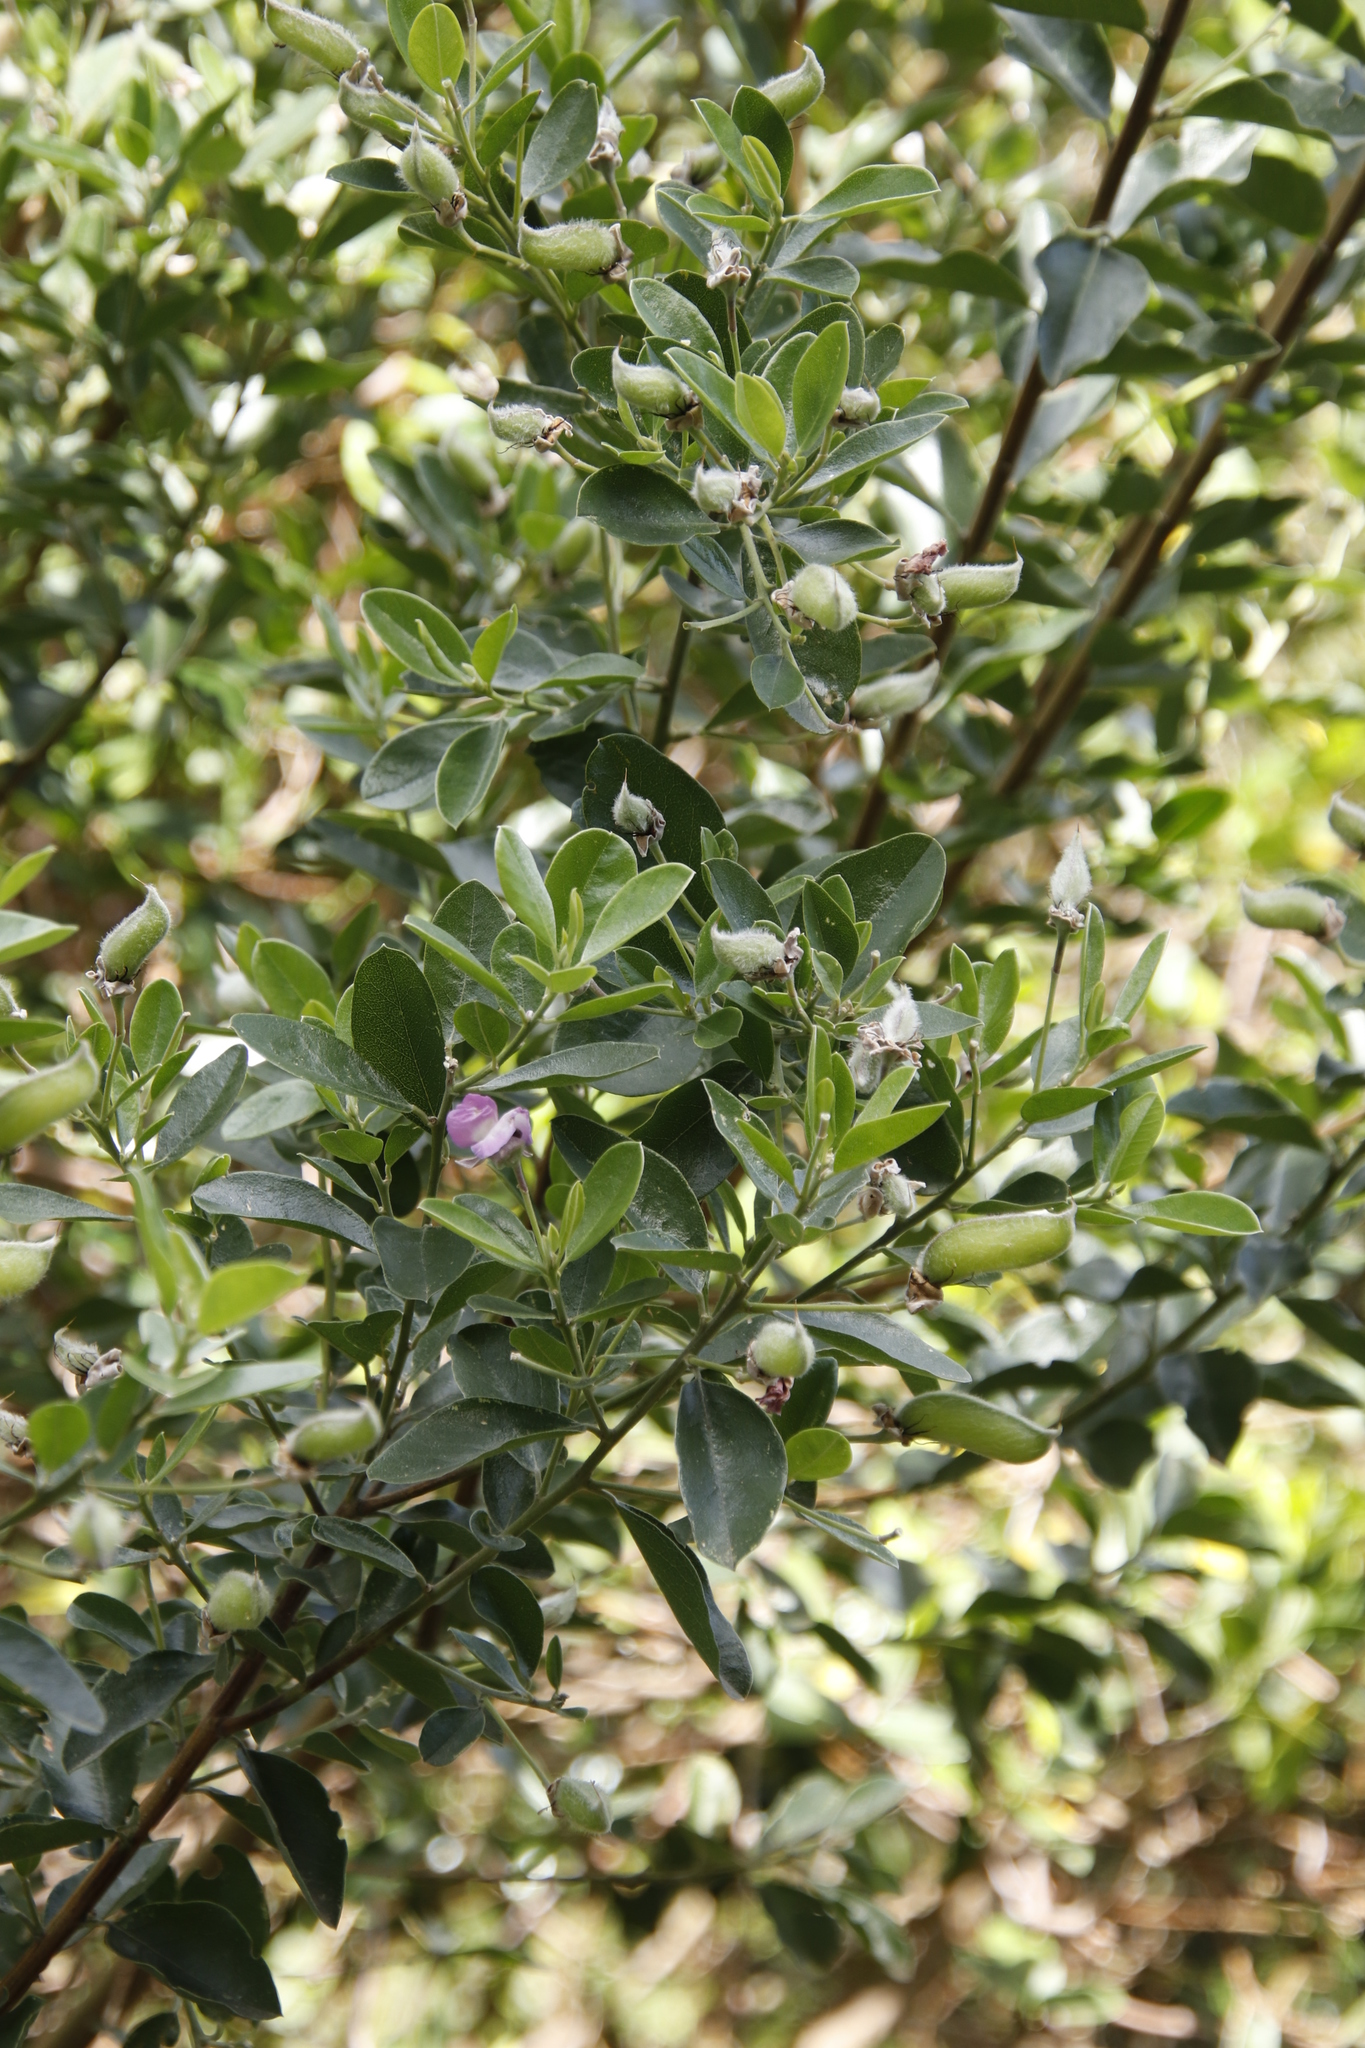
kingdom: Plantae
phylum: Tracheophyta
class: Magnoliopsida
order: Fabales
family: Fabaceae
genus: Podalyria
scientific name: Podalyria calyptrata
